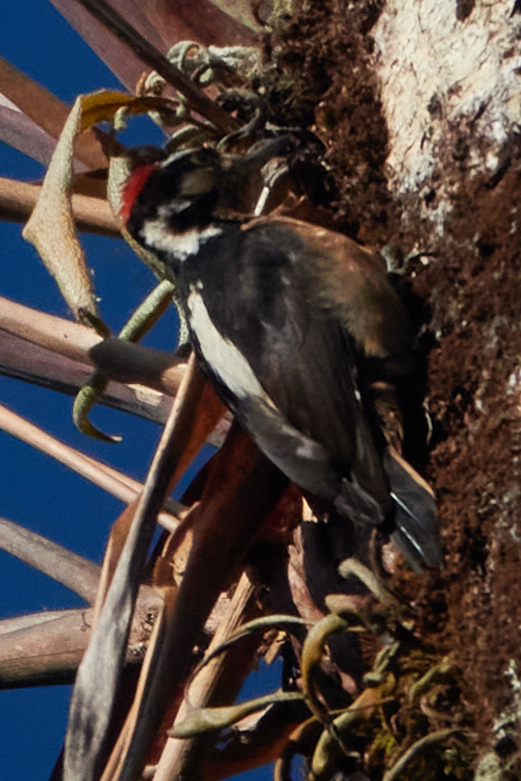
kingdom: Animalia
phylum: Chordata
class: Aves
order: Piciformes
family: Picidae
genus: Leuconotopicus
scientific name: Leuconotopicus villosus
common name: Hairy woodpecker
